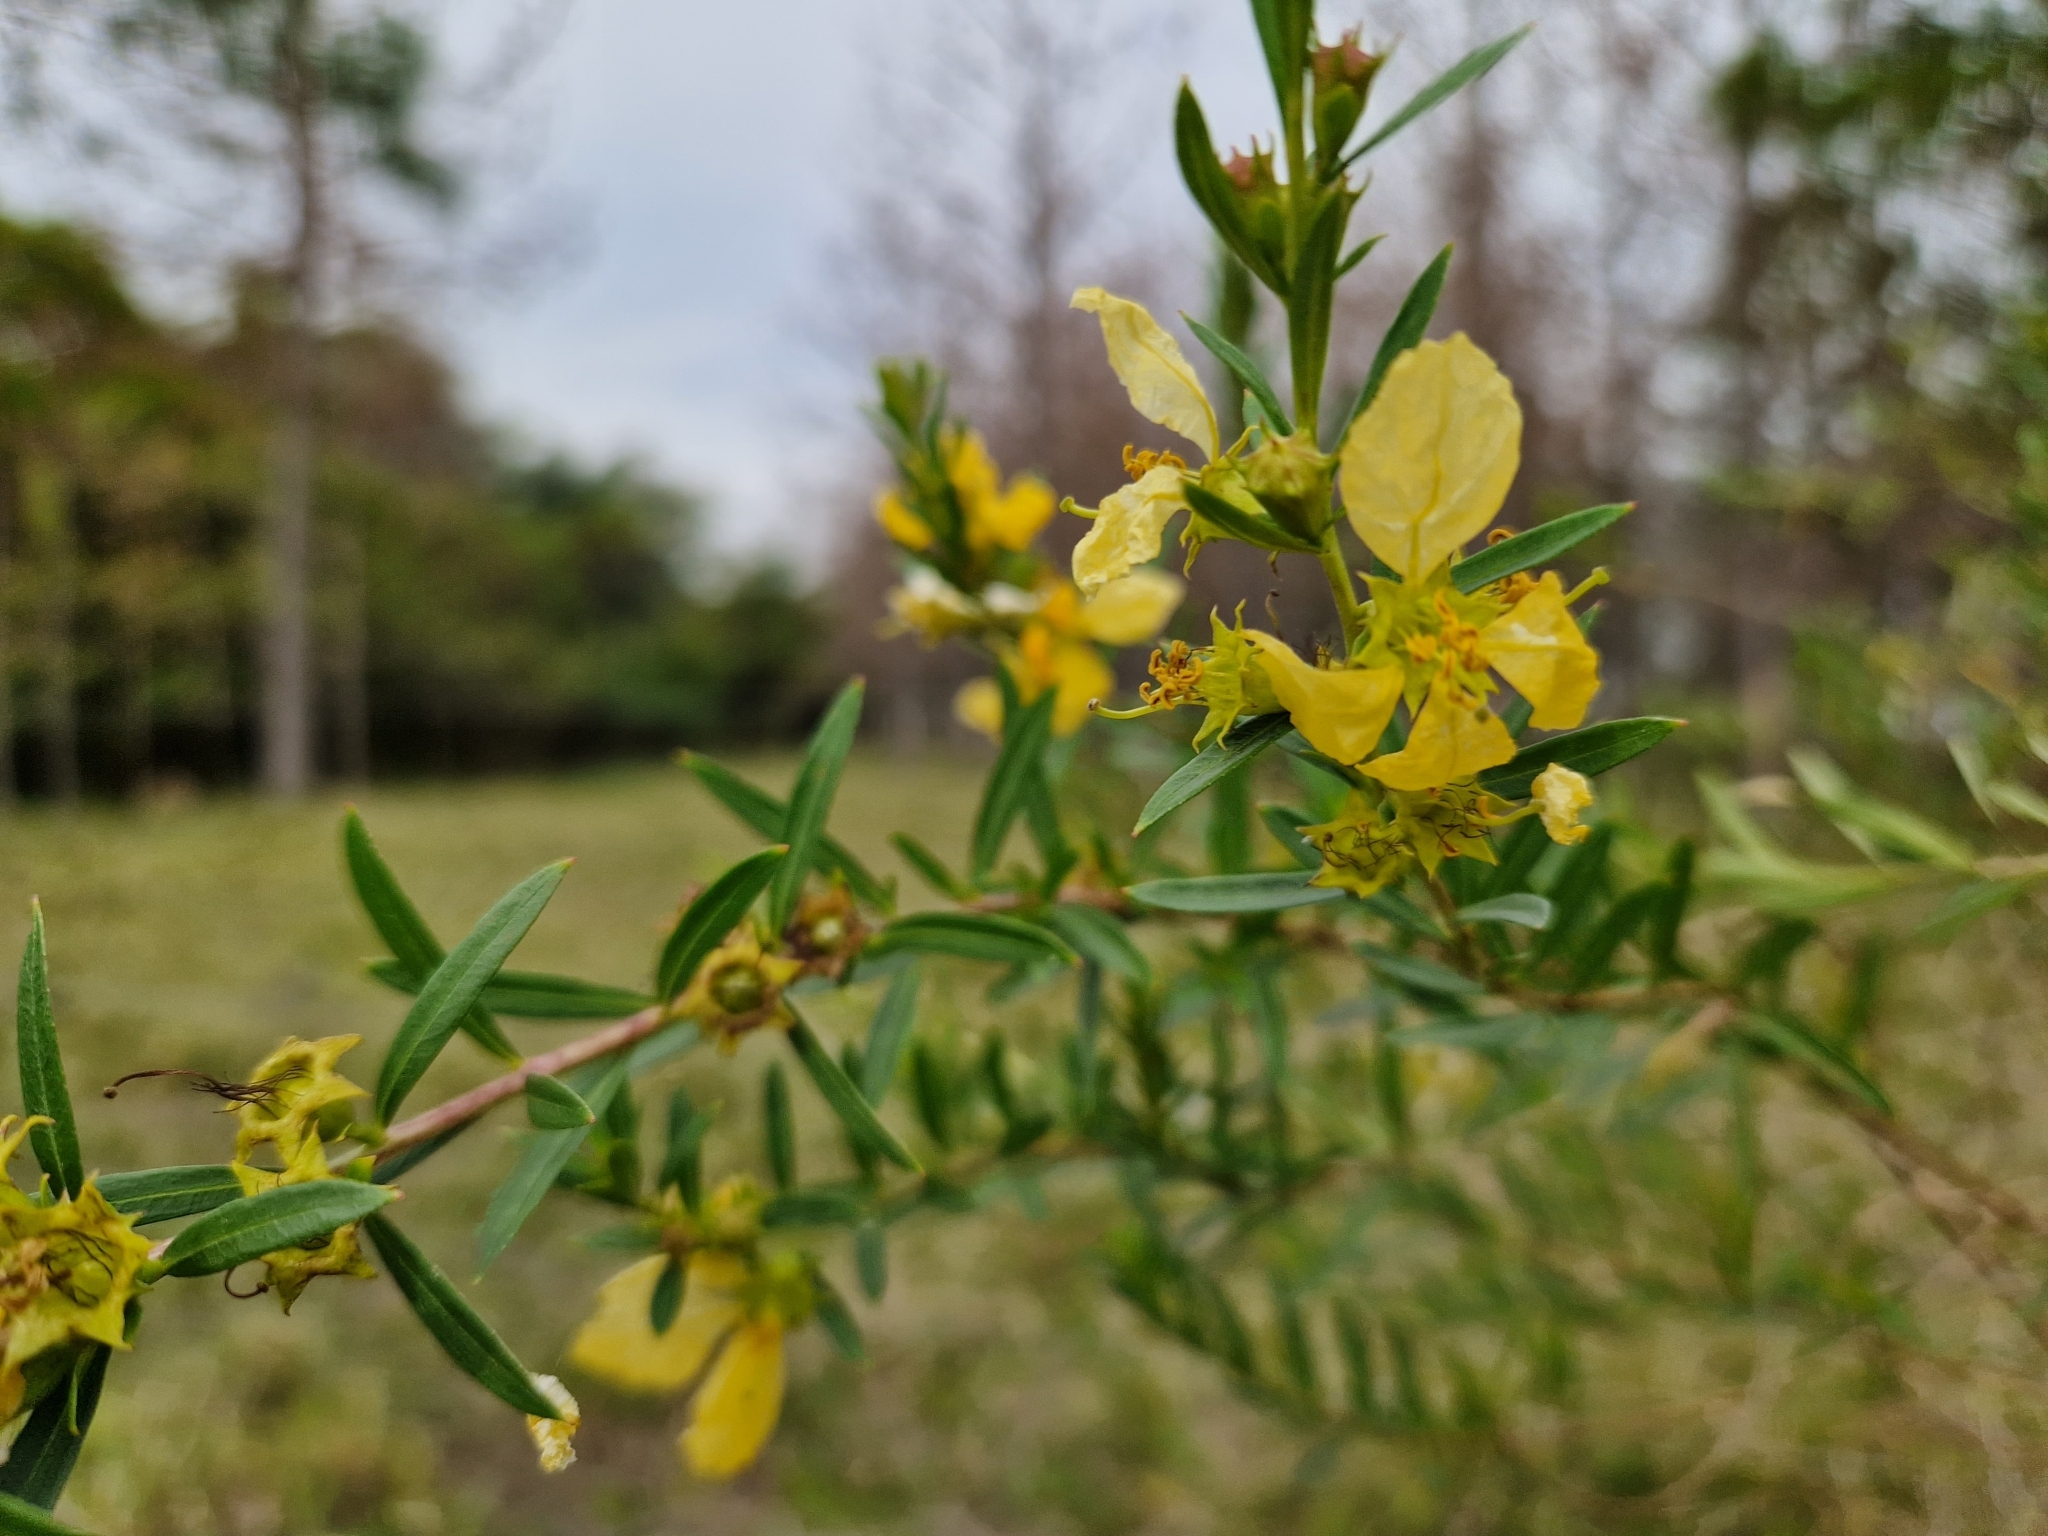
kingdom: Plantae
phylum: Tracheophyta
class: Magnoliopsida
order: Myrtales
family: Lythraceae
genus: Heimia
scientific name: Heimia salicifolia
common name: Willow-leaf heimia
